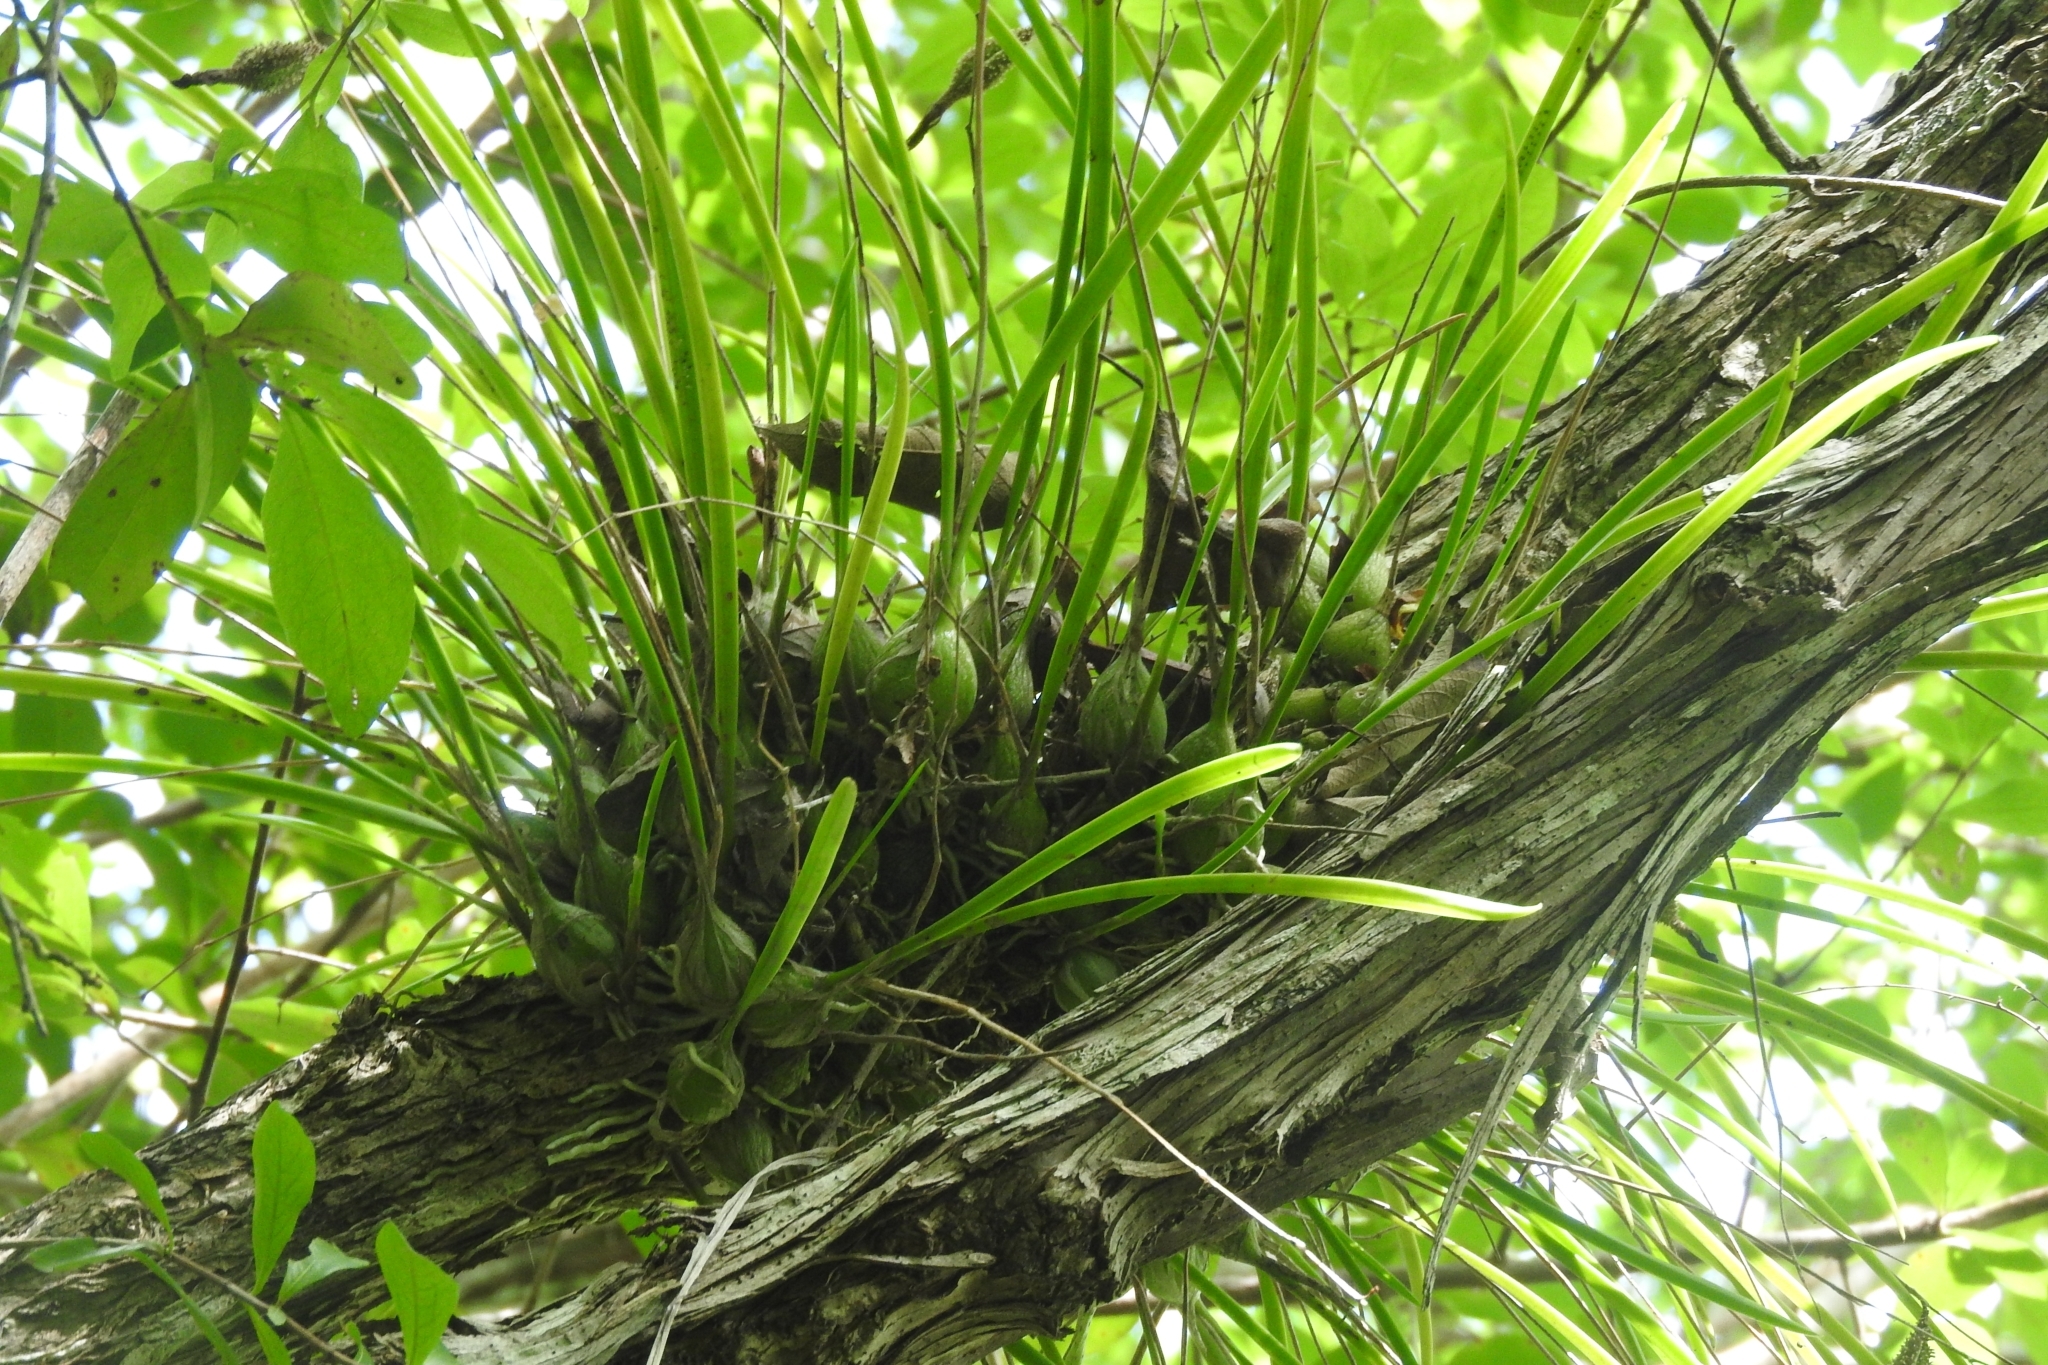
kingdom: Plantae
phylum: Tracheophyta
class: Liliopsida
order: Asparagales
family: Orchidaceae
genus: Encyclia
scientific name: Encyclia nematocaulon
